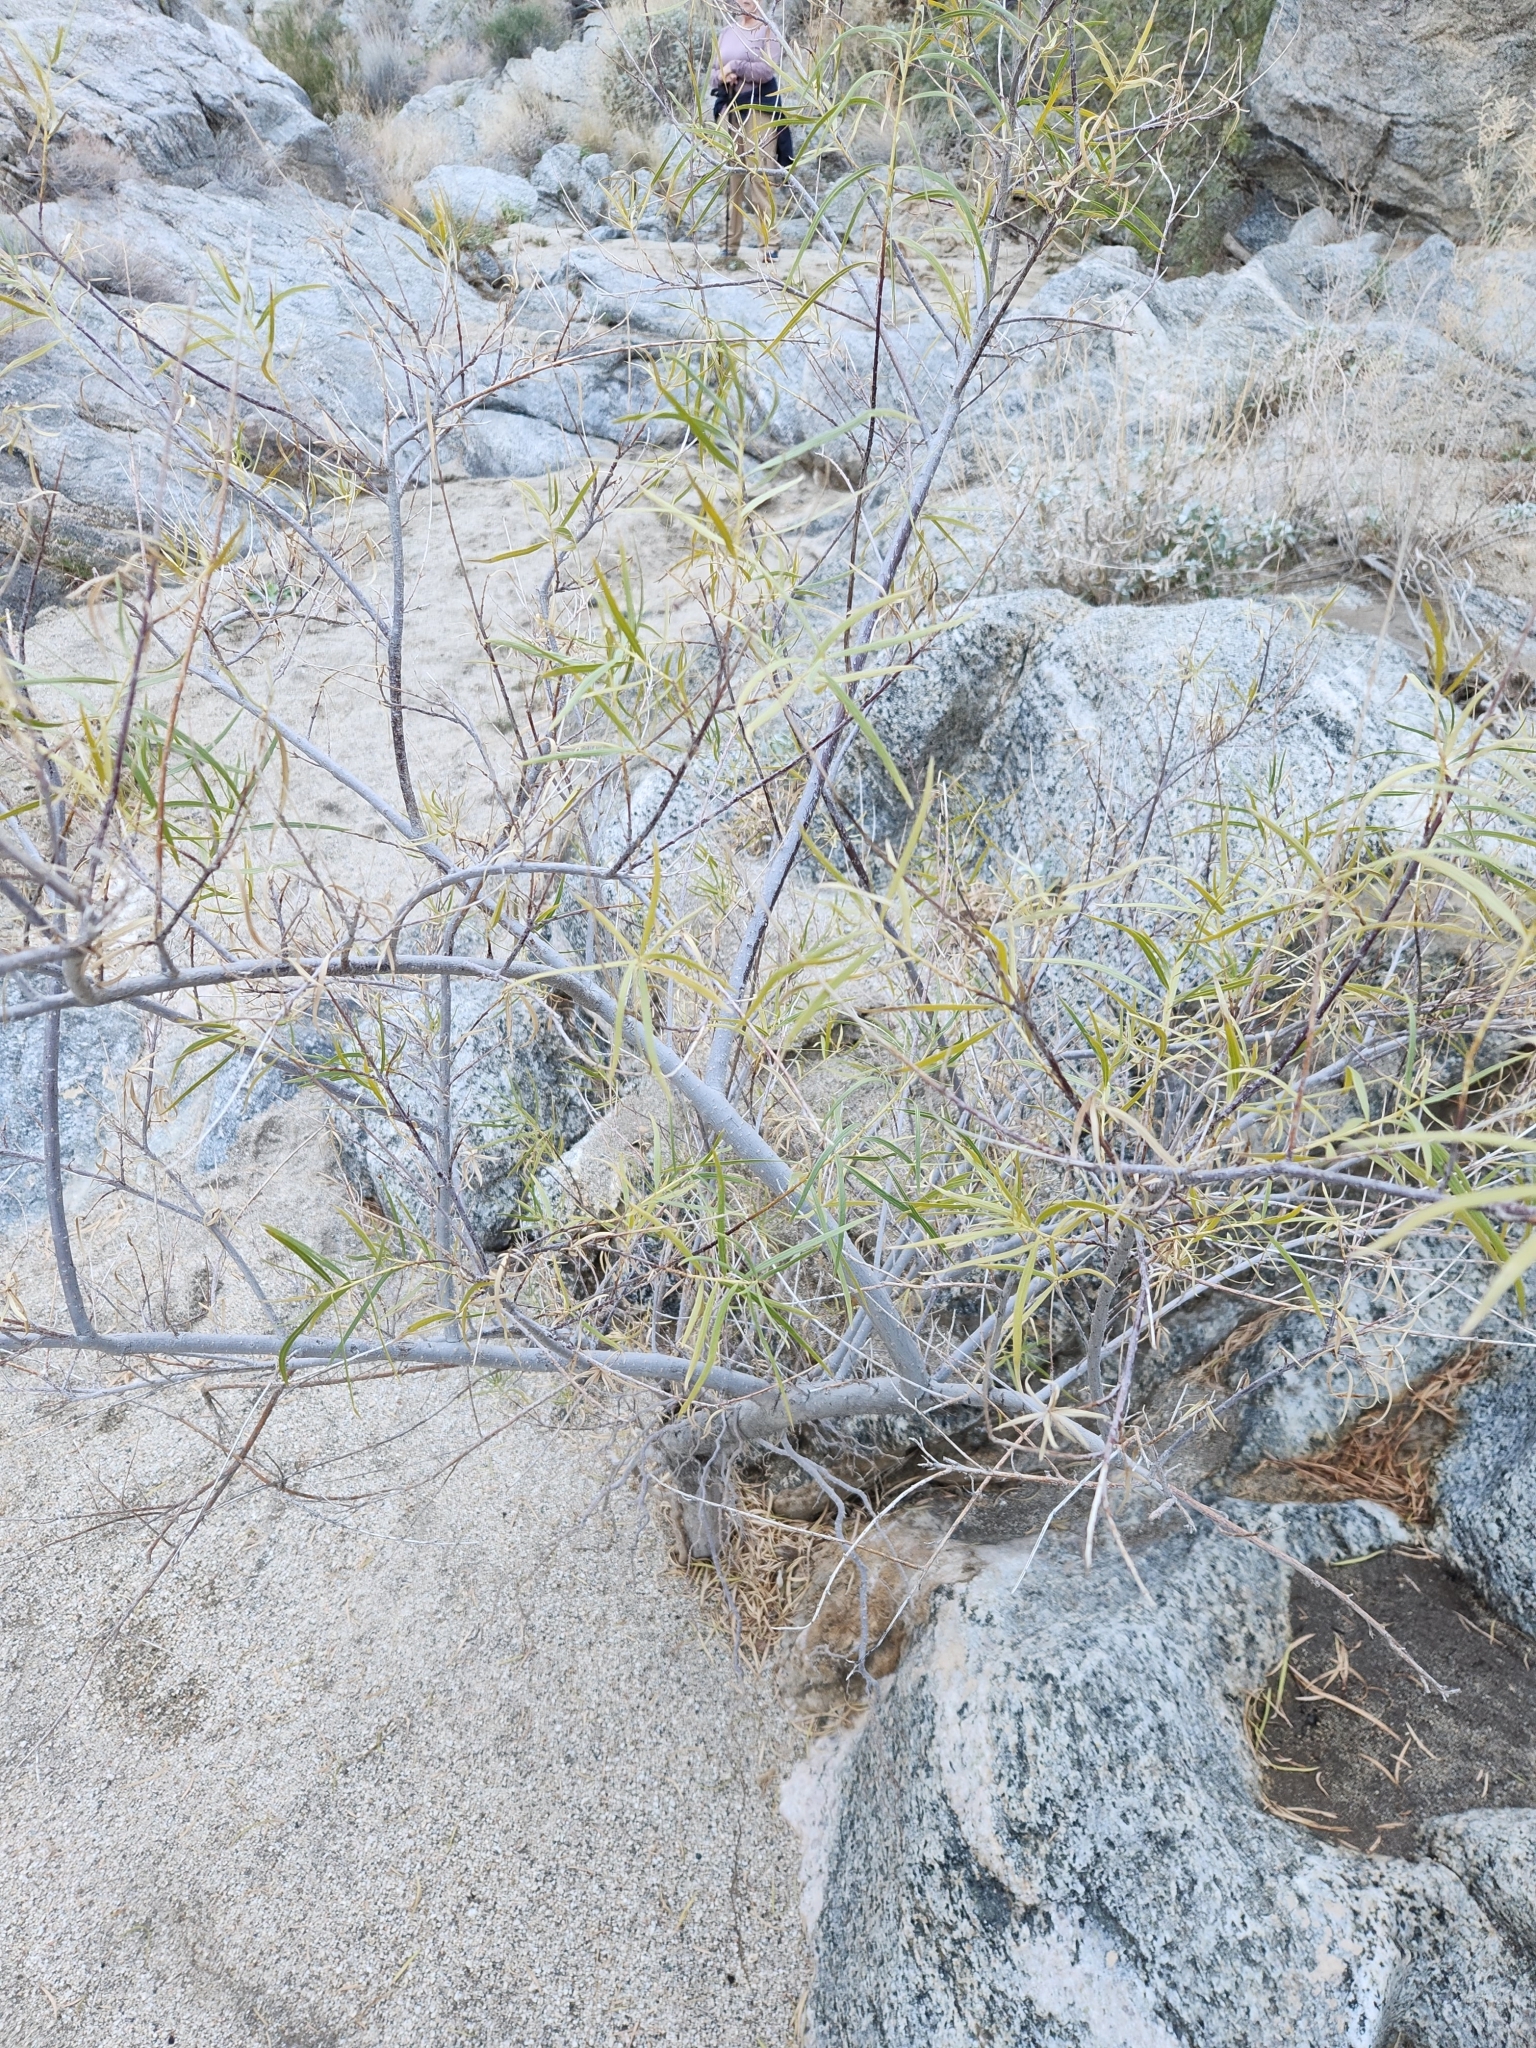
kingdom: Plantae
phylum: Tracheophyta
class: Magnoliopsida
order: Lamiales
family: Bignoniaceae
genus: Chilopsis
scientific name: Chilopsis linearis
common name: Desert-willow
